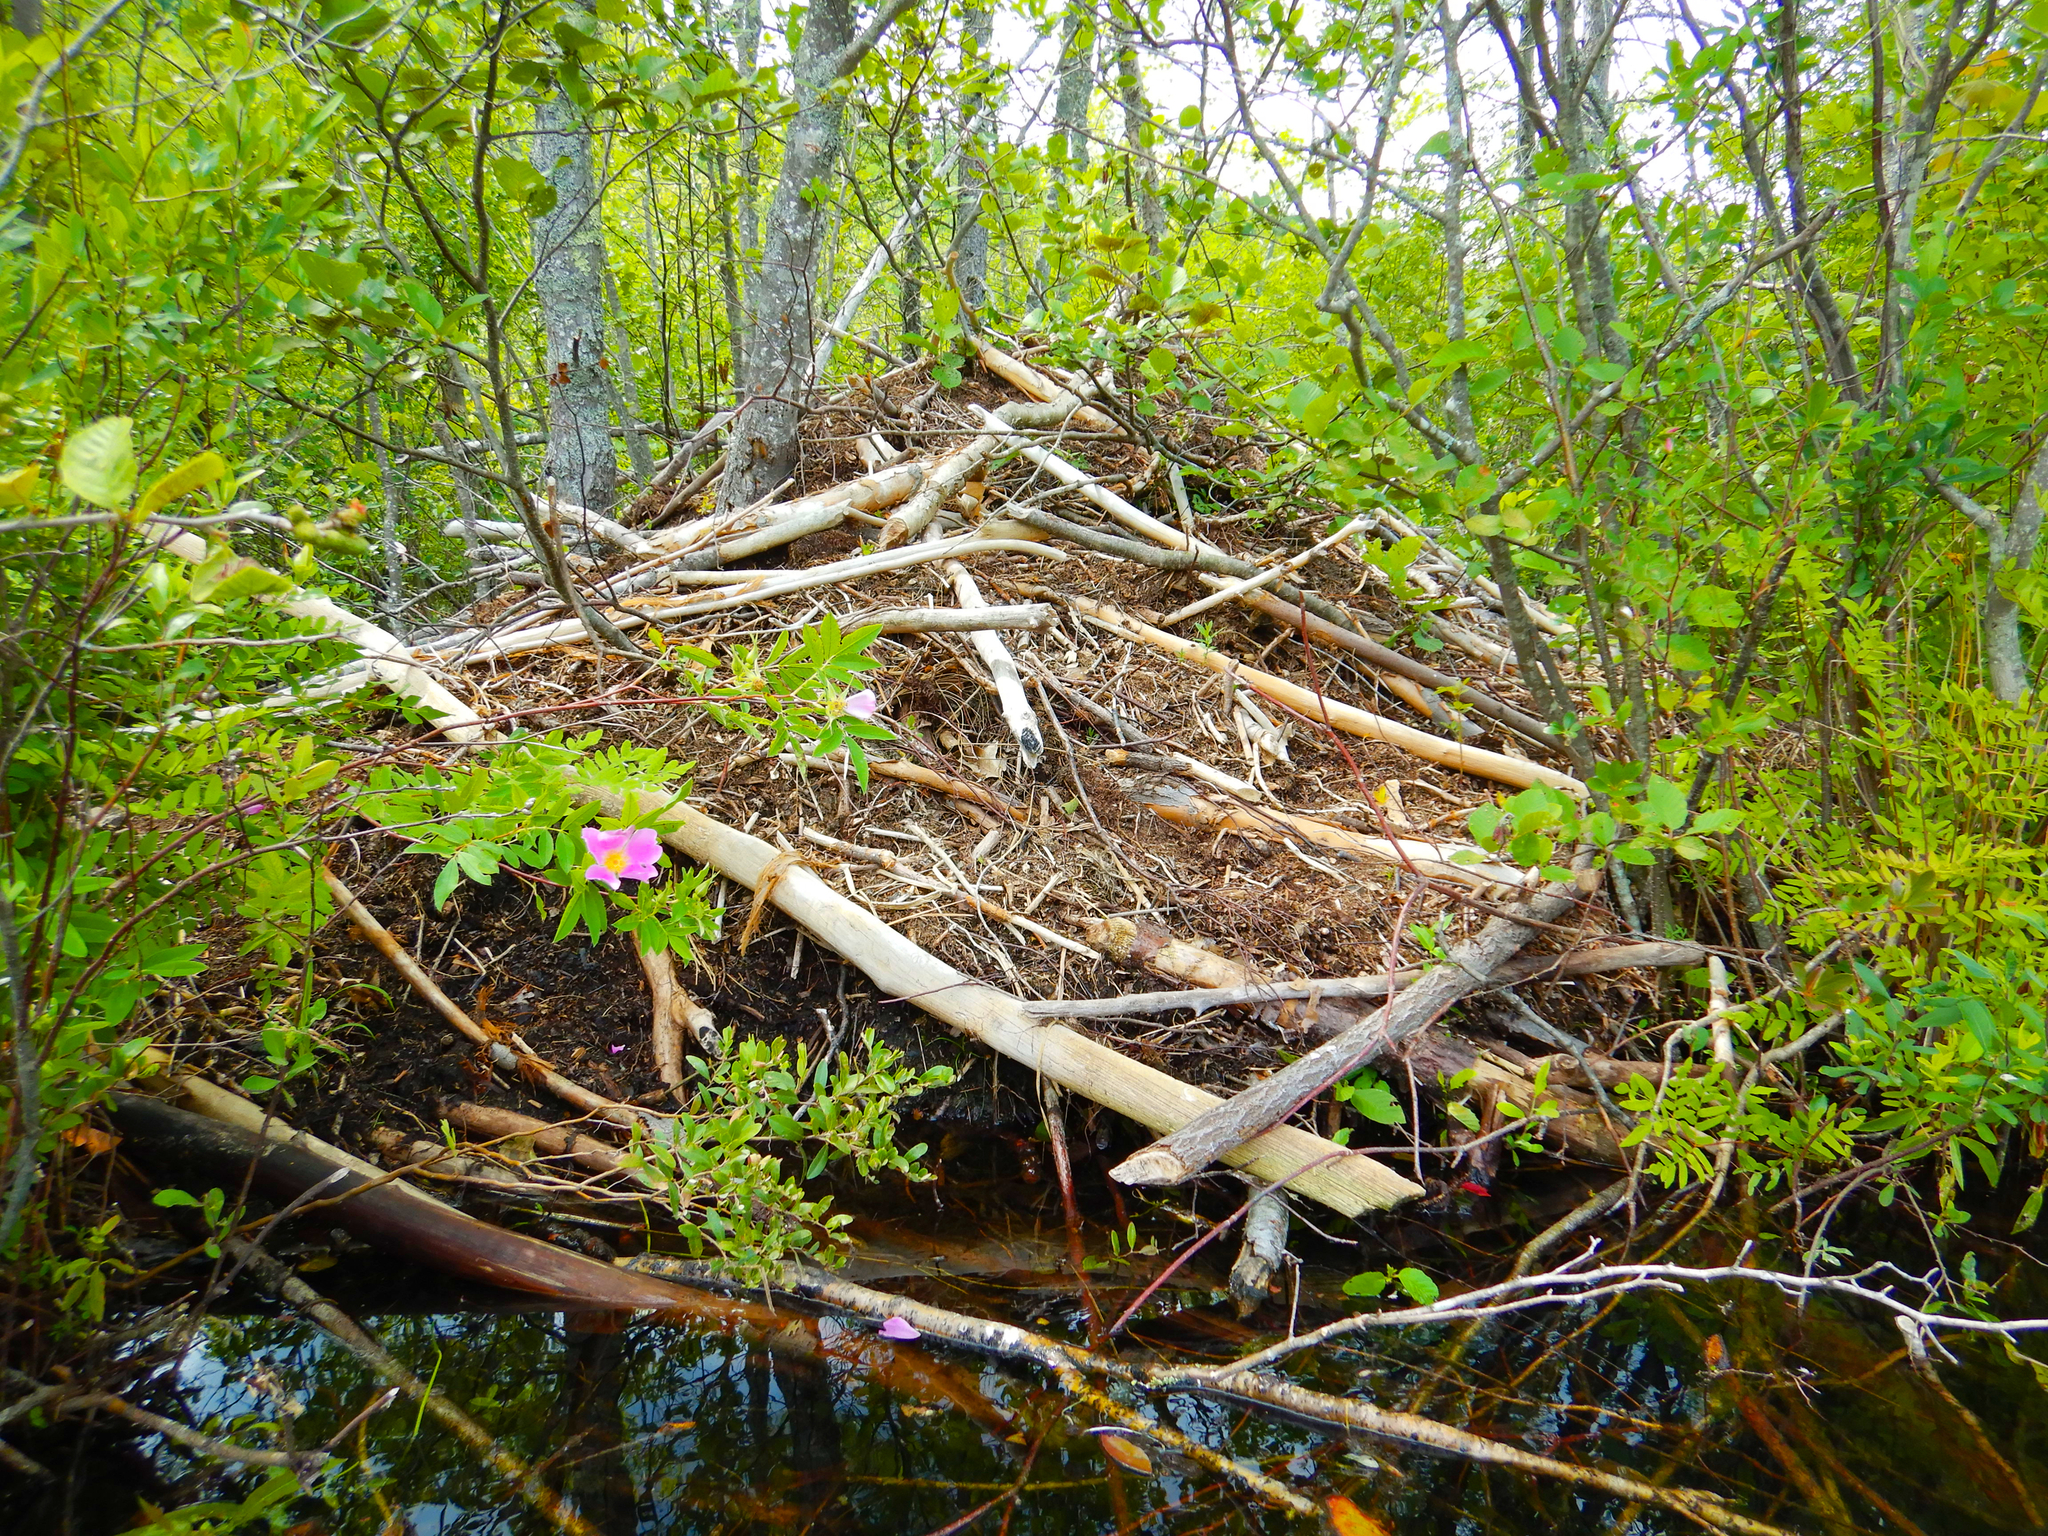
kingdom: Animalia
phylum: Chordata
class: Mammalia
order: Rodentia
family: Castoridae
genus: Castor
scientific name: Castor canadensis
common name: American beaver
